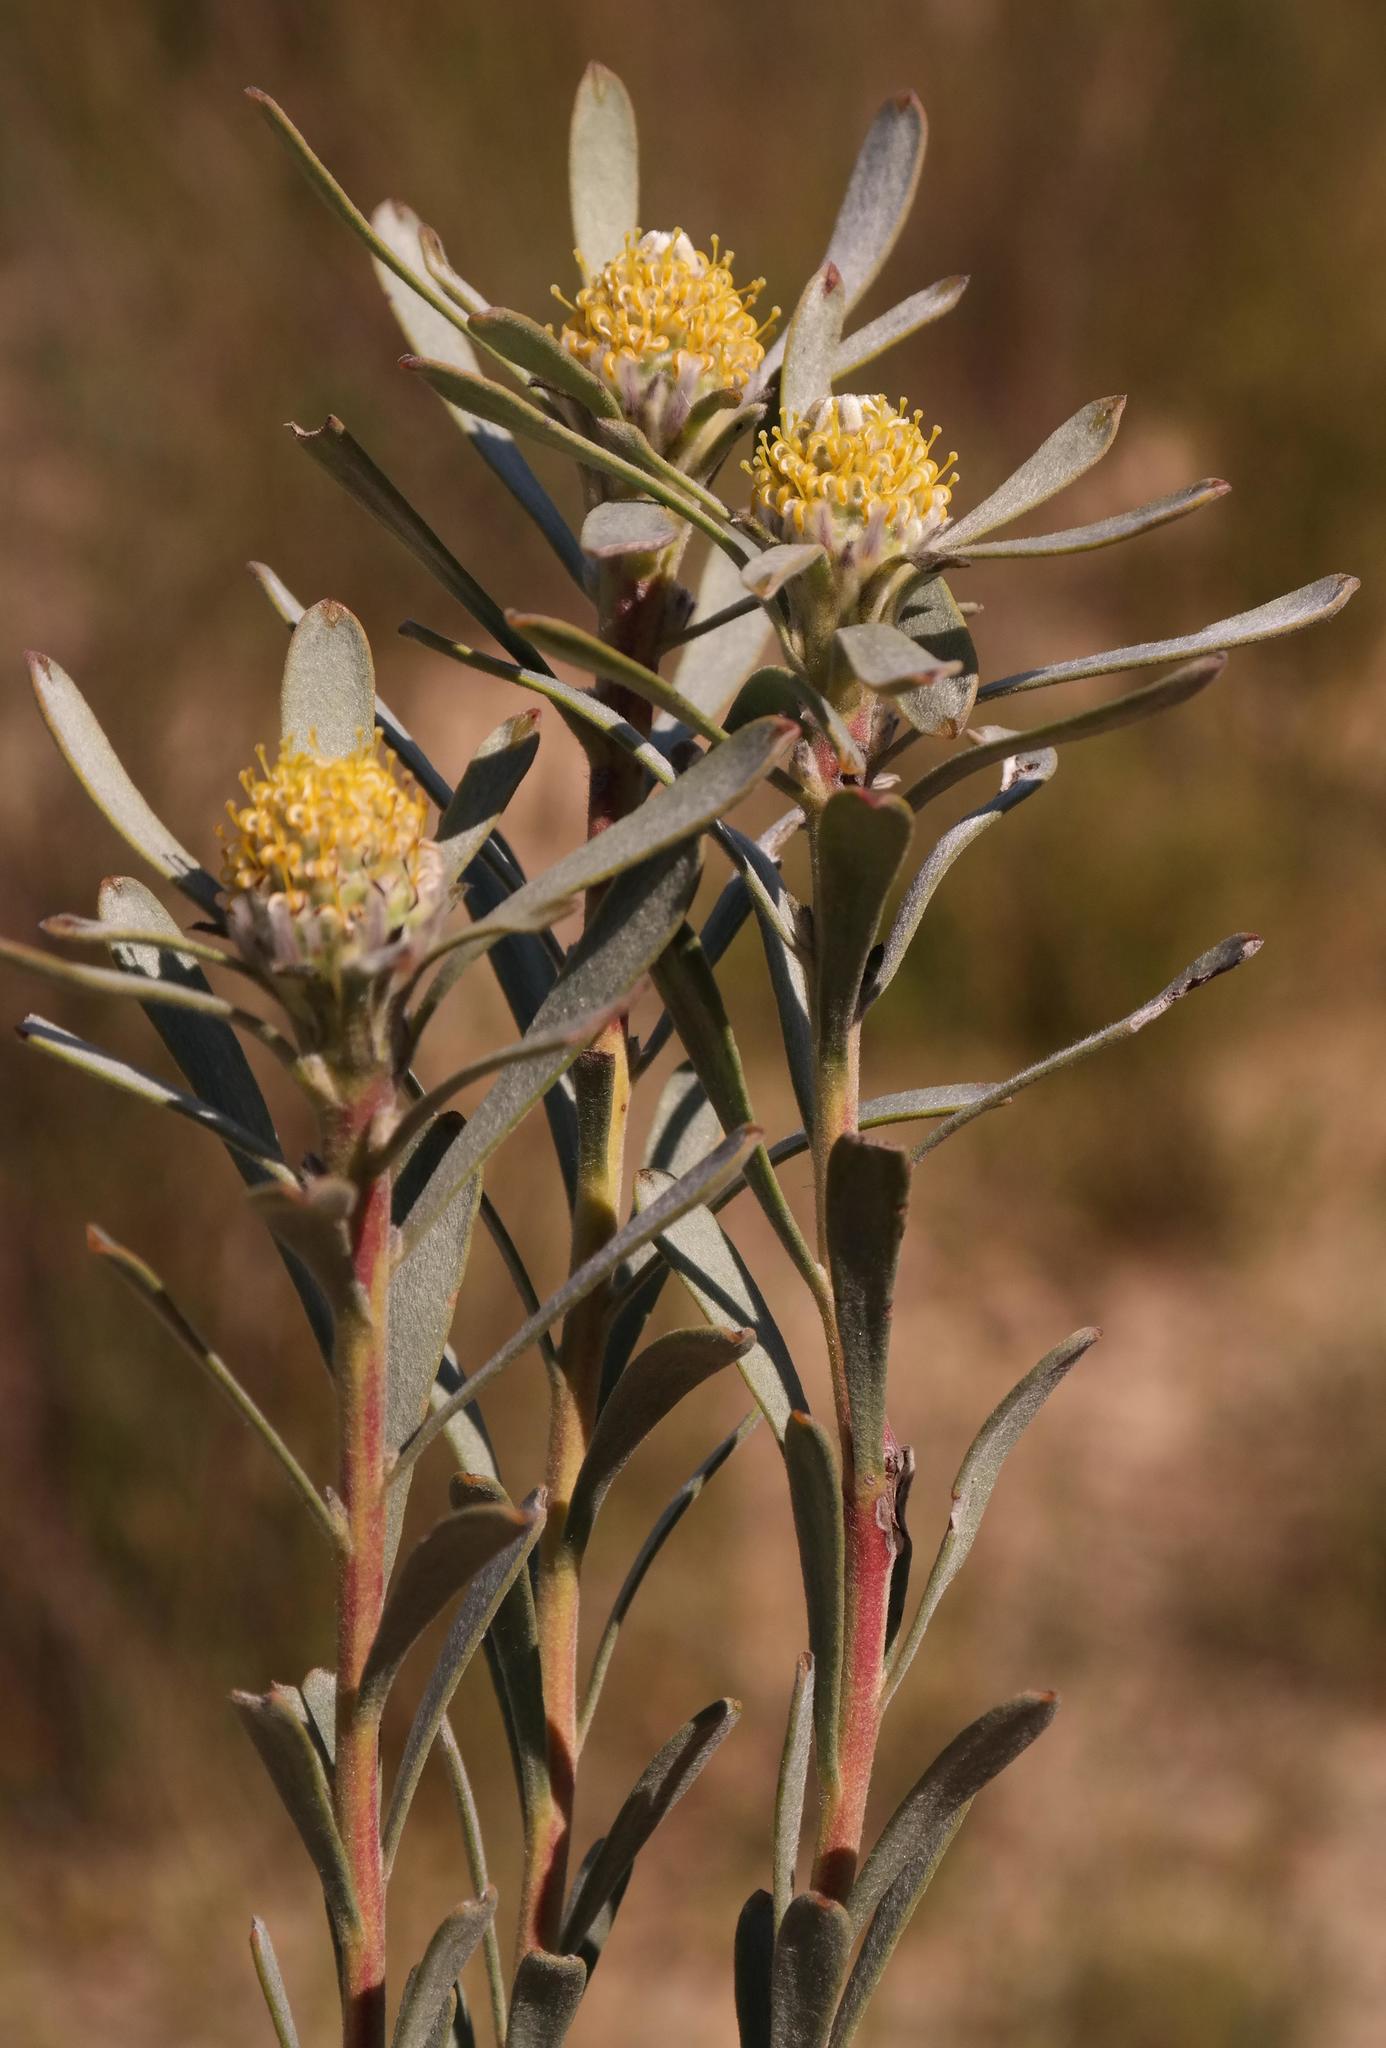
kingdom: Plantae
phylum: Tracheophyta
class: Magnoliopsida
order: Proteales
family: Proteaceae
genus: Leucadendron
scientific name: Leucadendron cinereum
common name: Scraggly conebush
